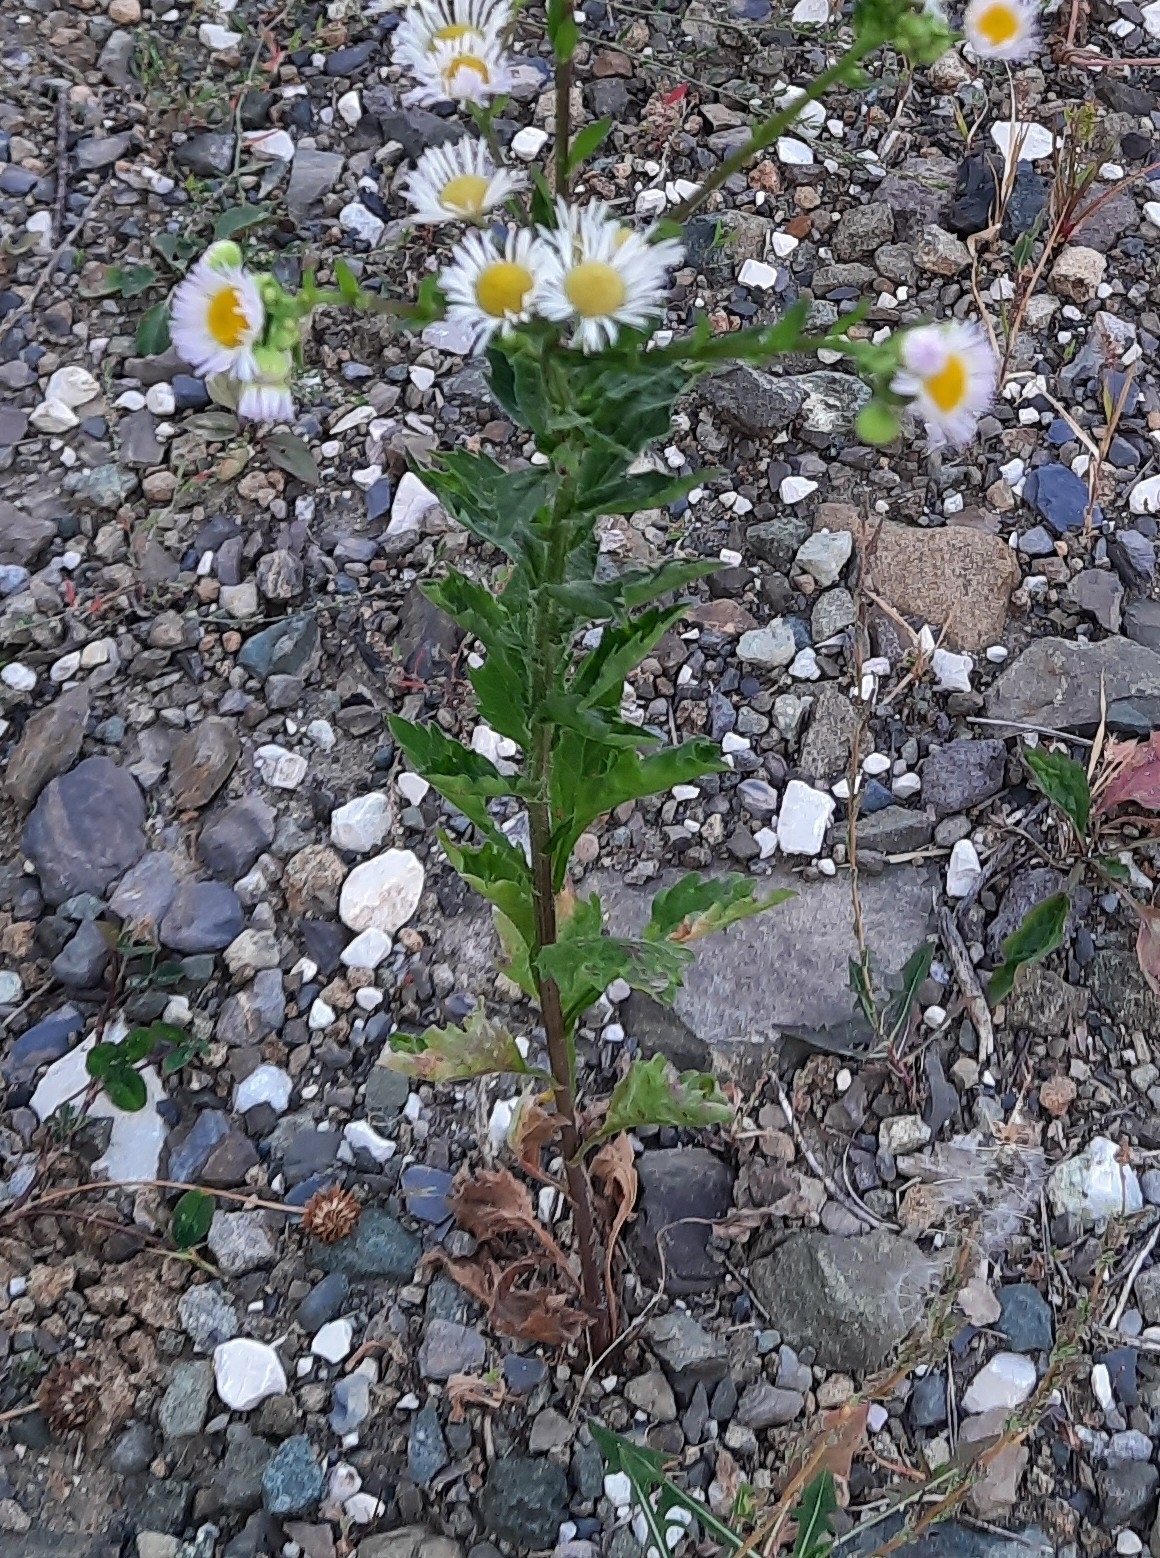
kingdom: Plantae
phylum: Tracheophyta
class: Magnoliopsida
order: Asterales
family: Asteraceae
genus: Erigeron
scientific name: Erigeron annuus
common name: Tall fleabane
